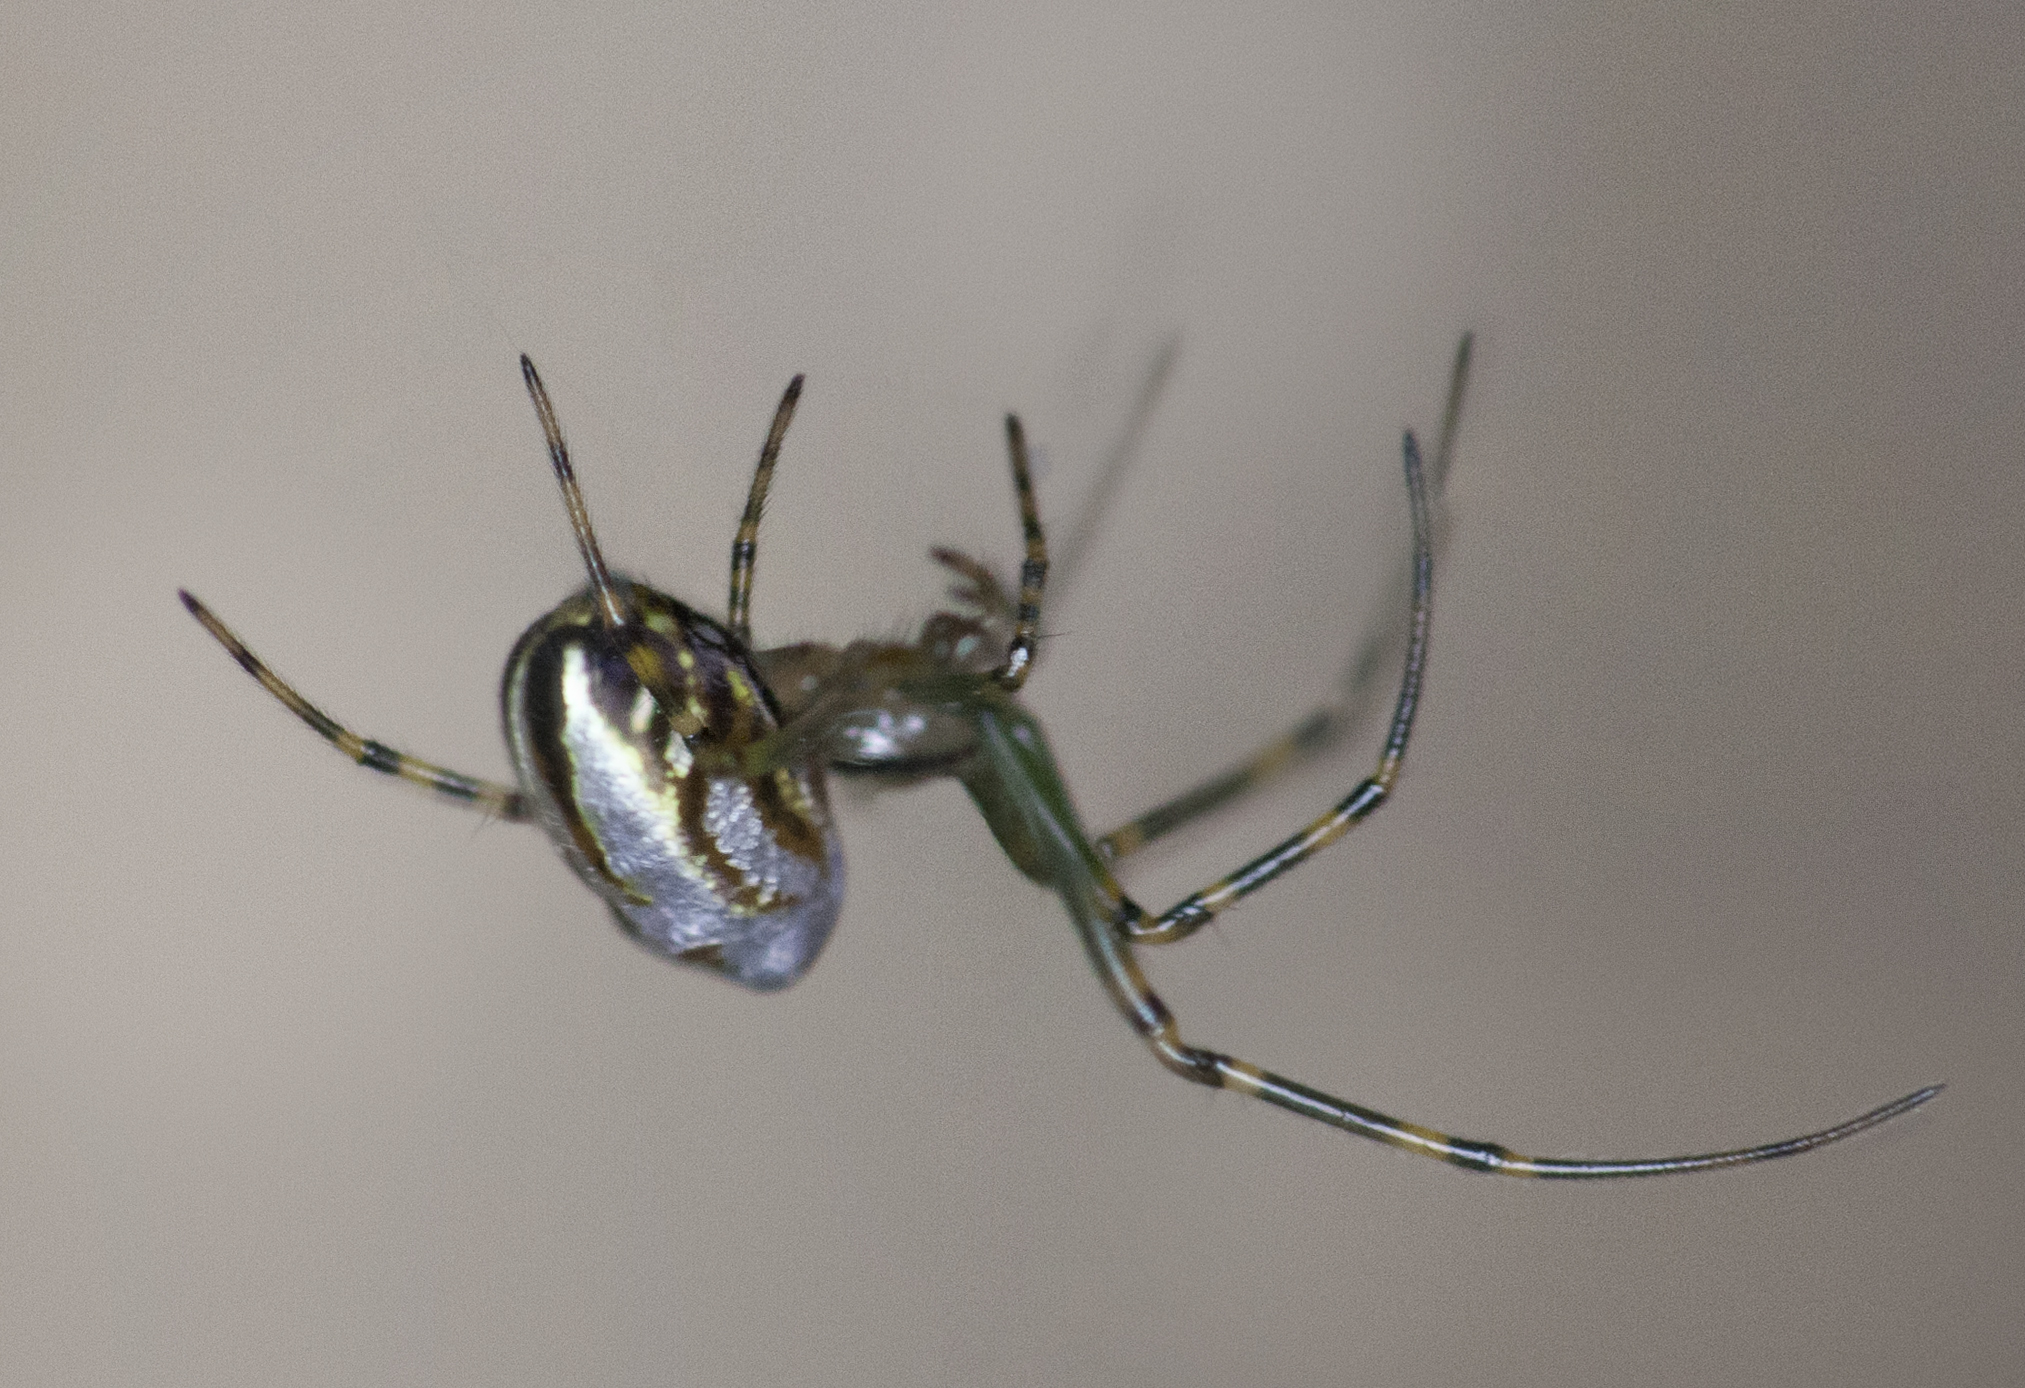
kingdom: Animalia
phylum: Arthropoda
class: Arachnida
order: Araneae
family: Tetragnathidae
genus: Leucauge
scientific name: Leucauge dromedaria
